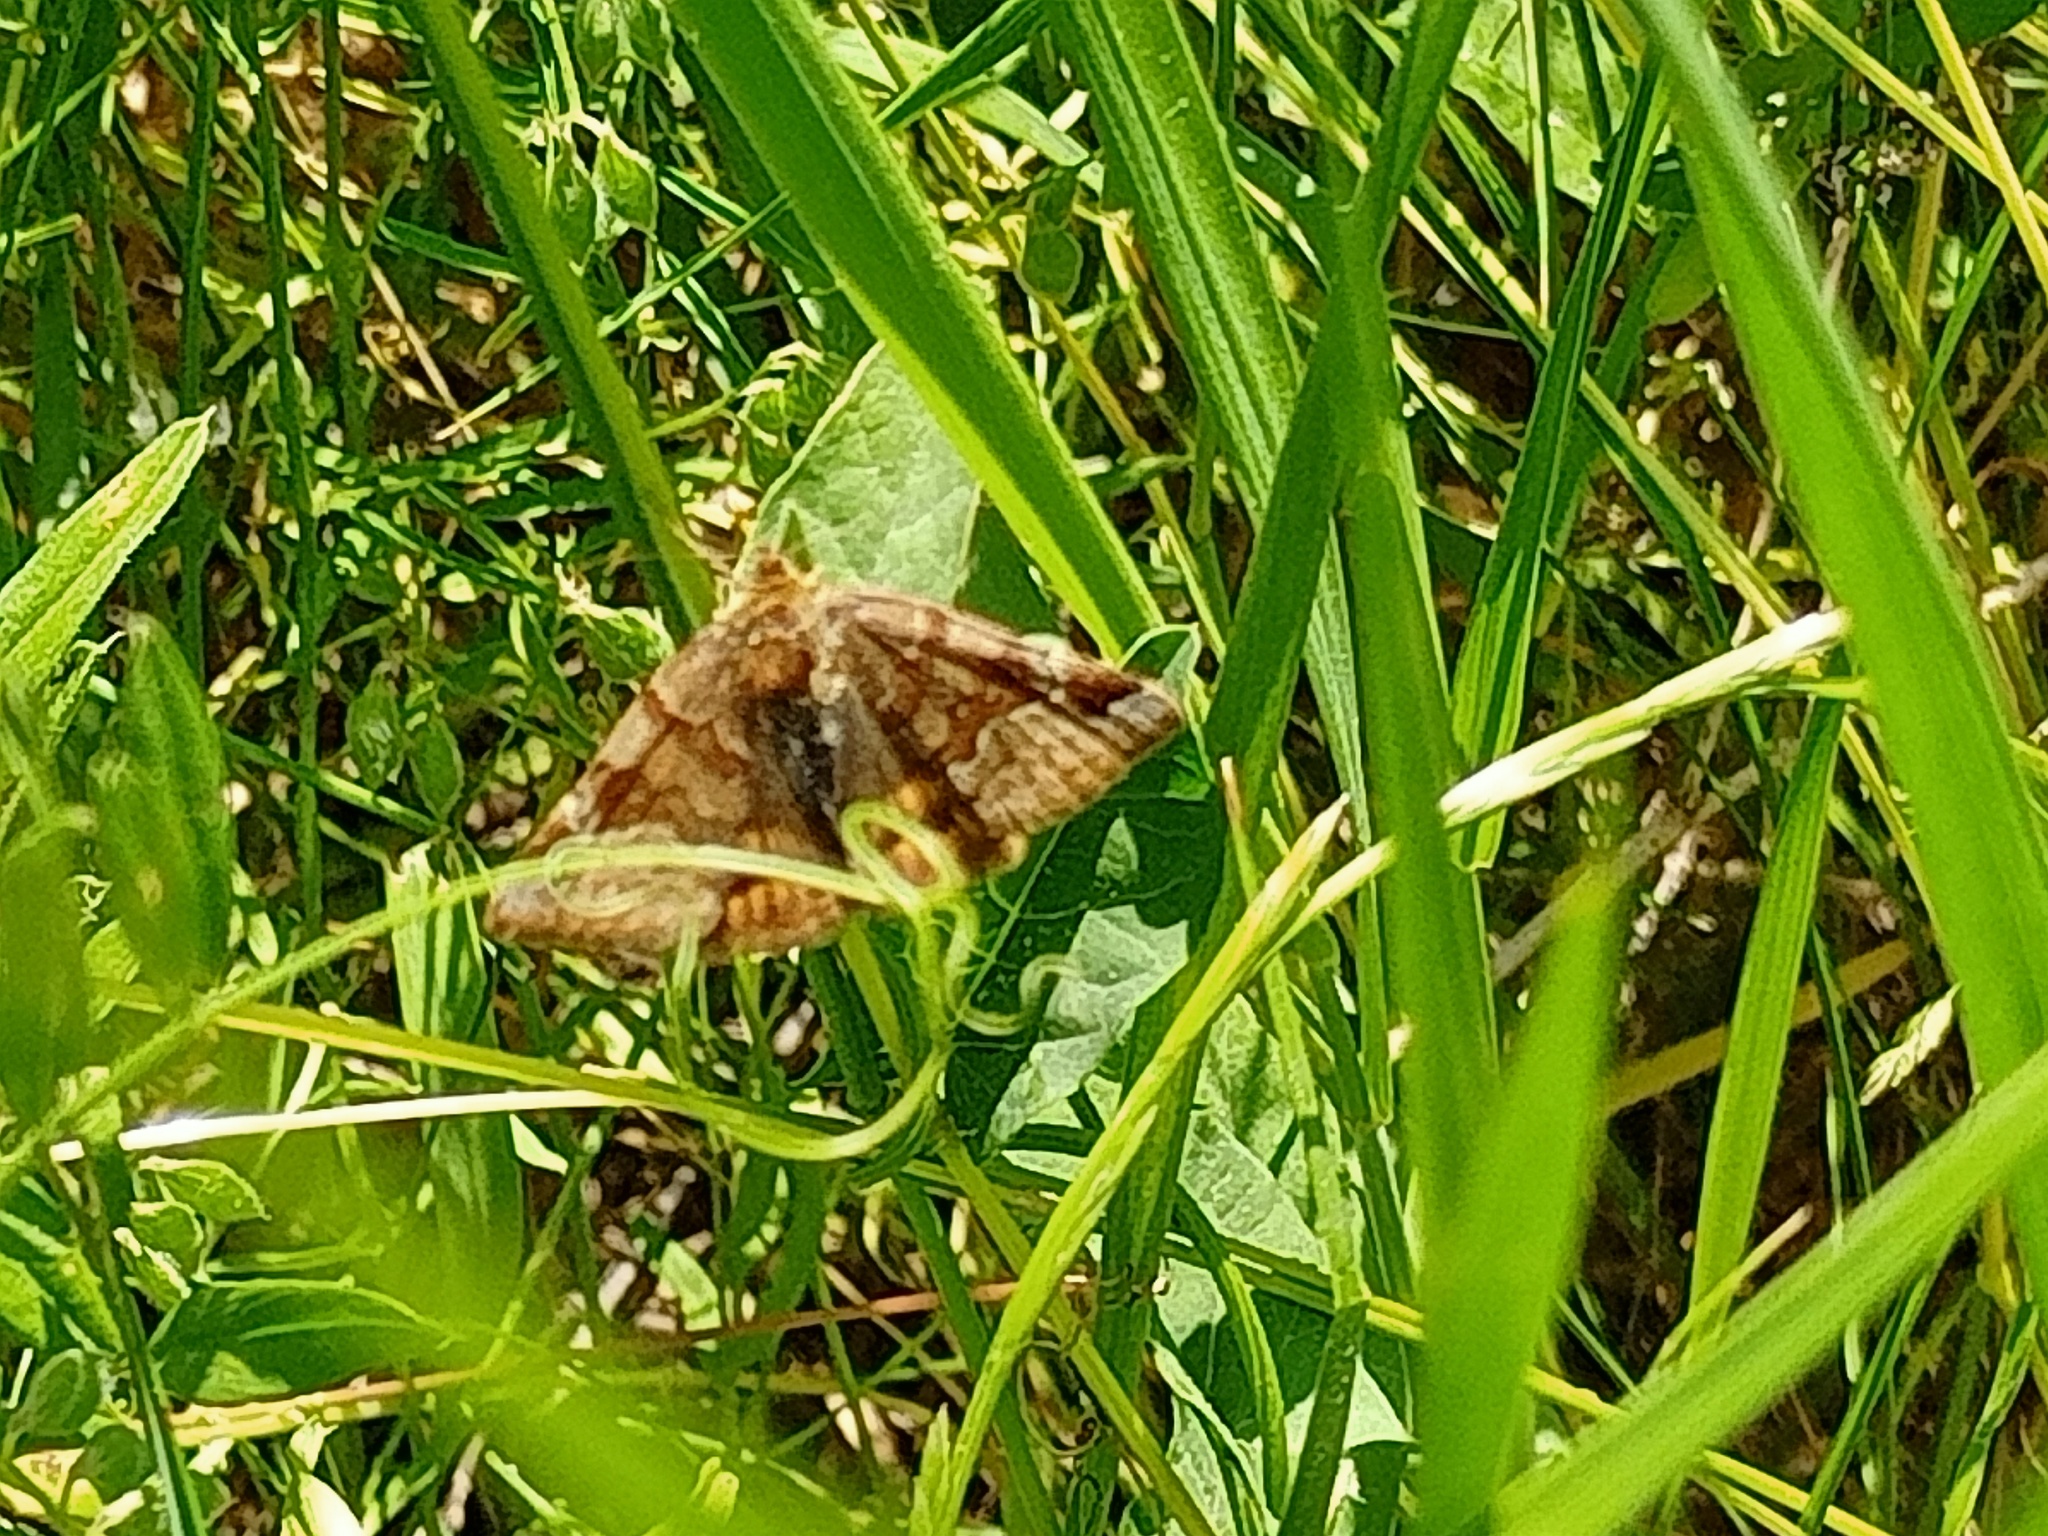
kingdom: Animalia
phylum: Arthropoda
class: Insecta
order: Lepidoptera
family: Erebidae
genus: Euclidia
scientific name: Euclidia glyphica
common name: Burnet companion
